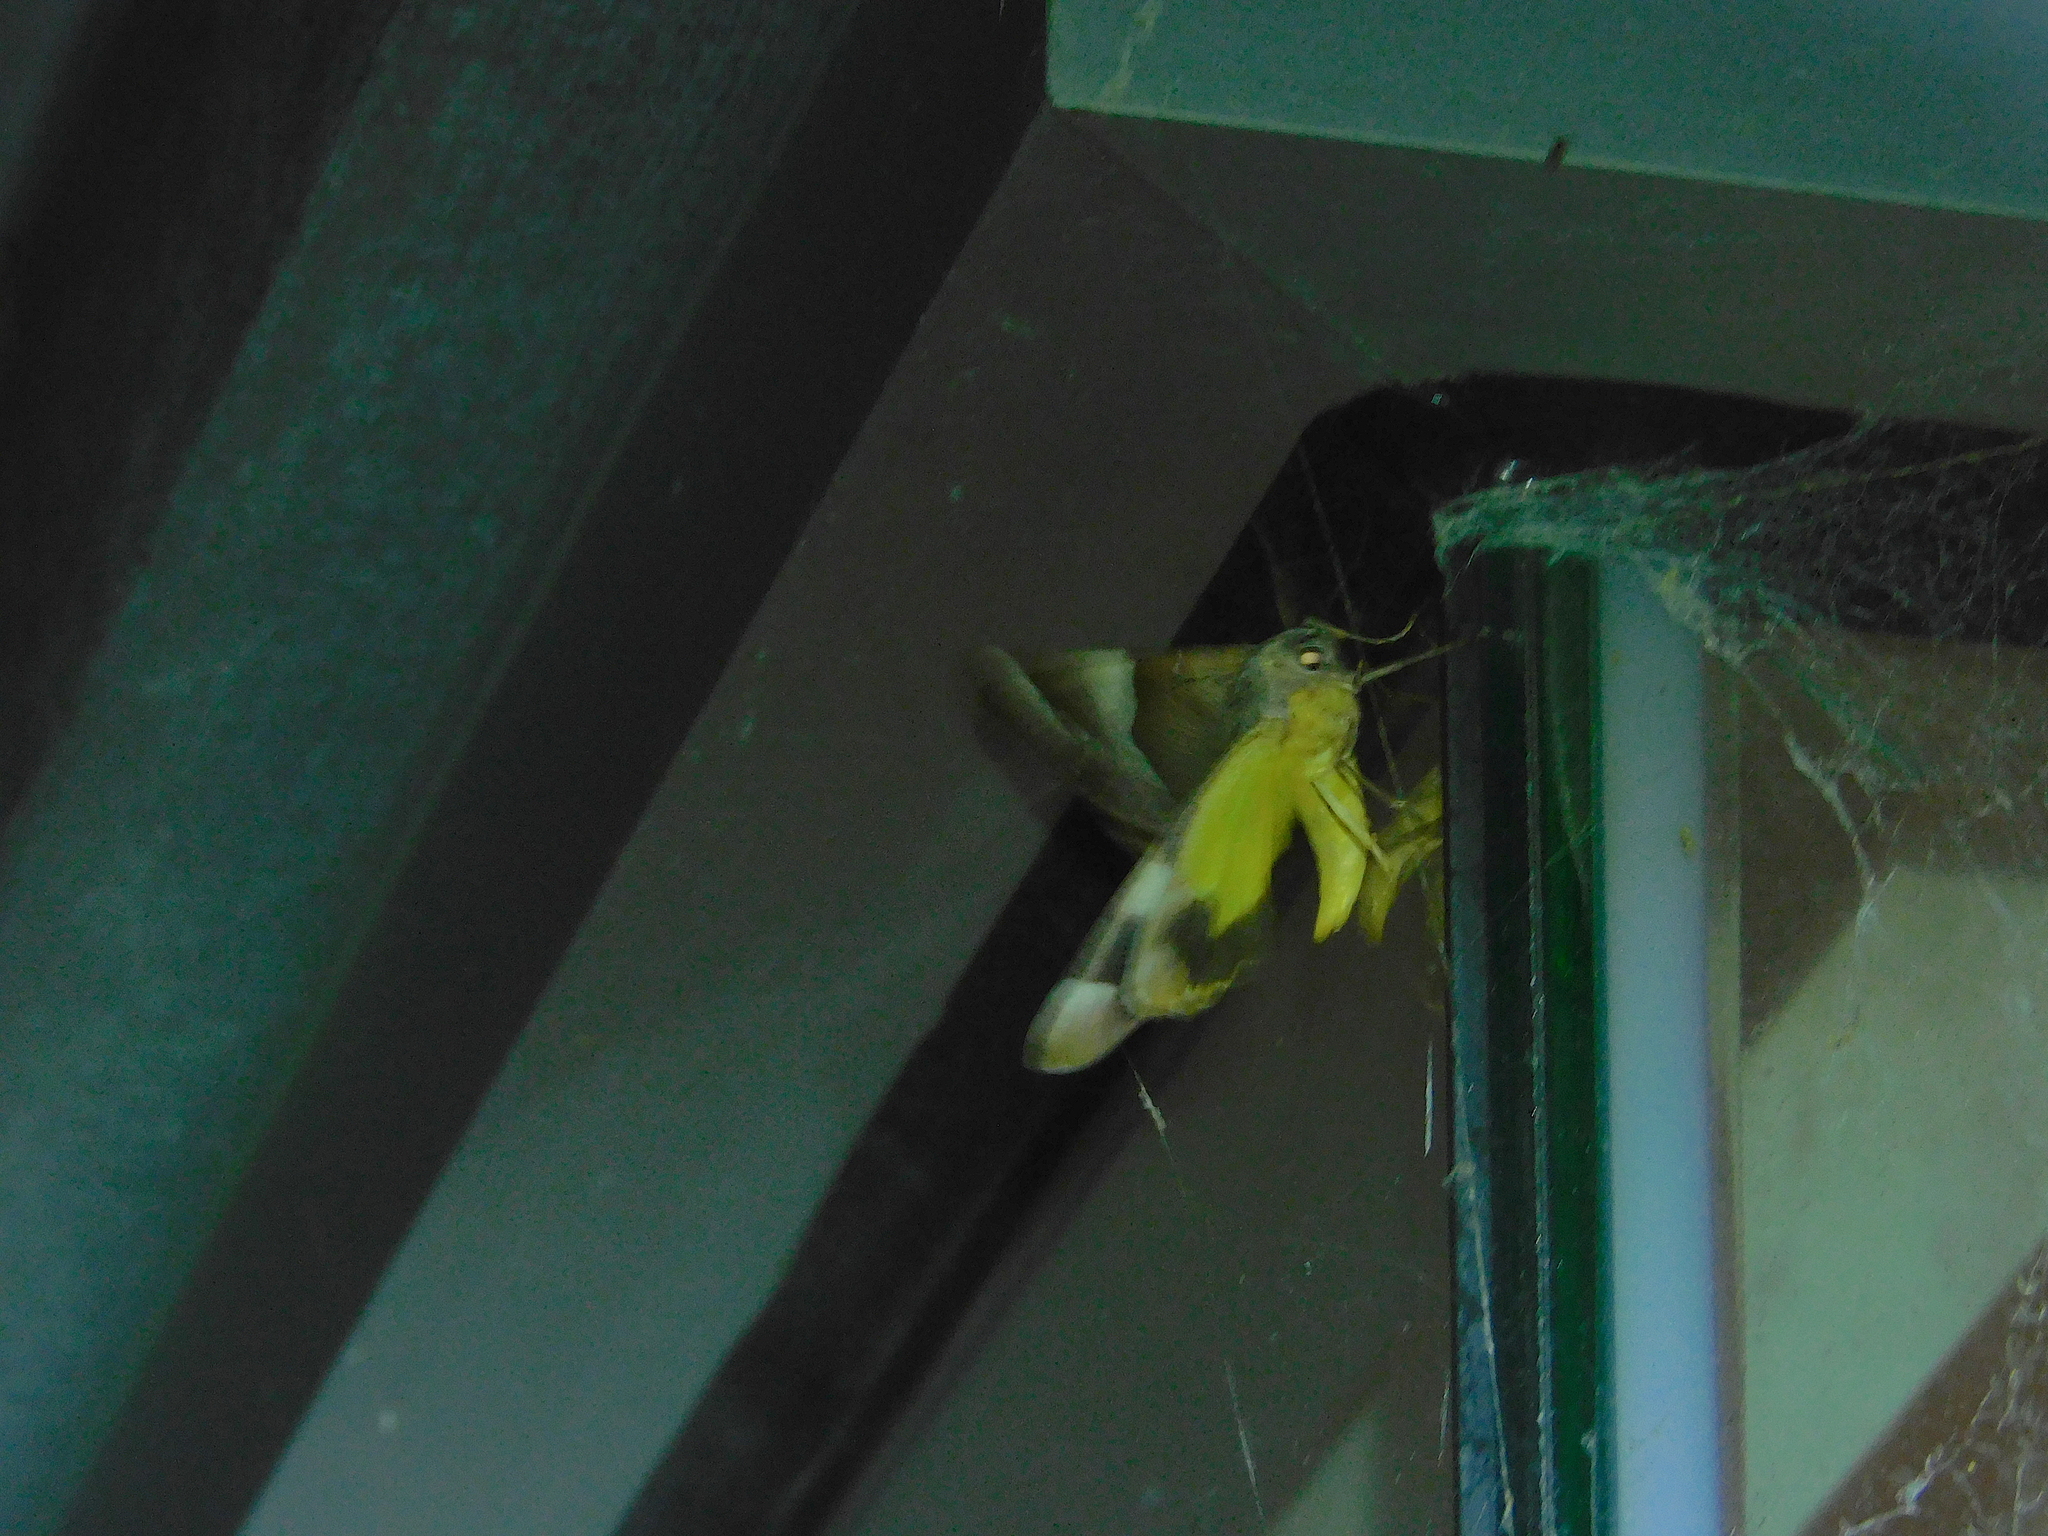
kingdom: Animalia
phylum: Arthropoda
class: Insecta
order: Lepidoptera
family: Geometridae
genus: Niceteria
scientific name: Niceteria macrocosma
